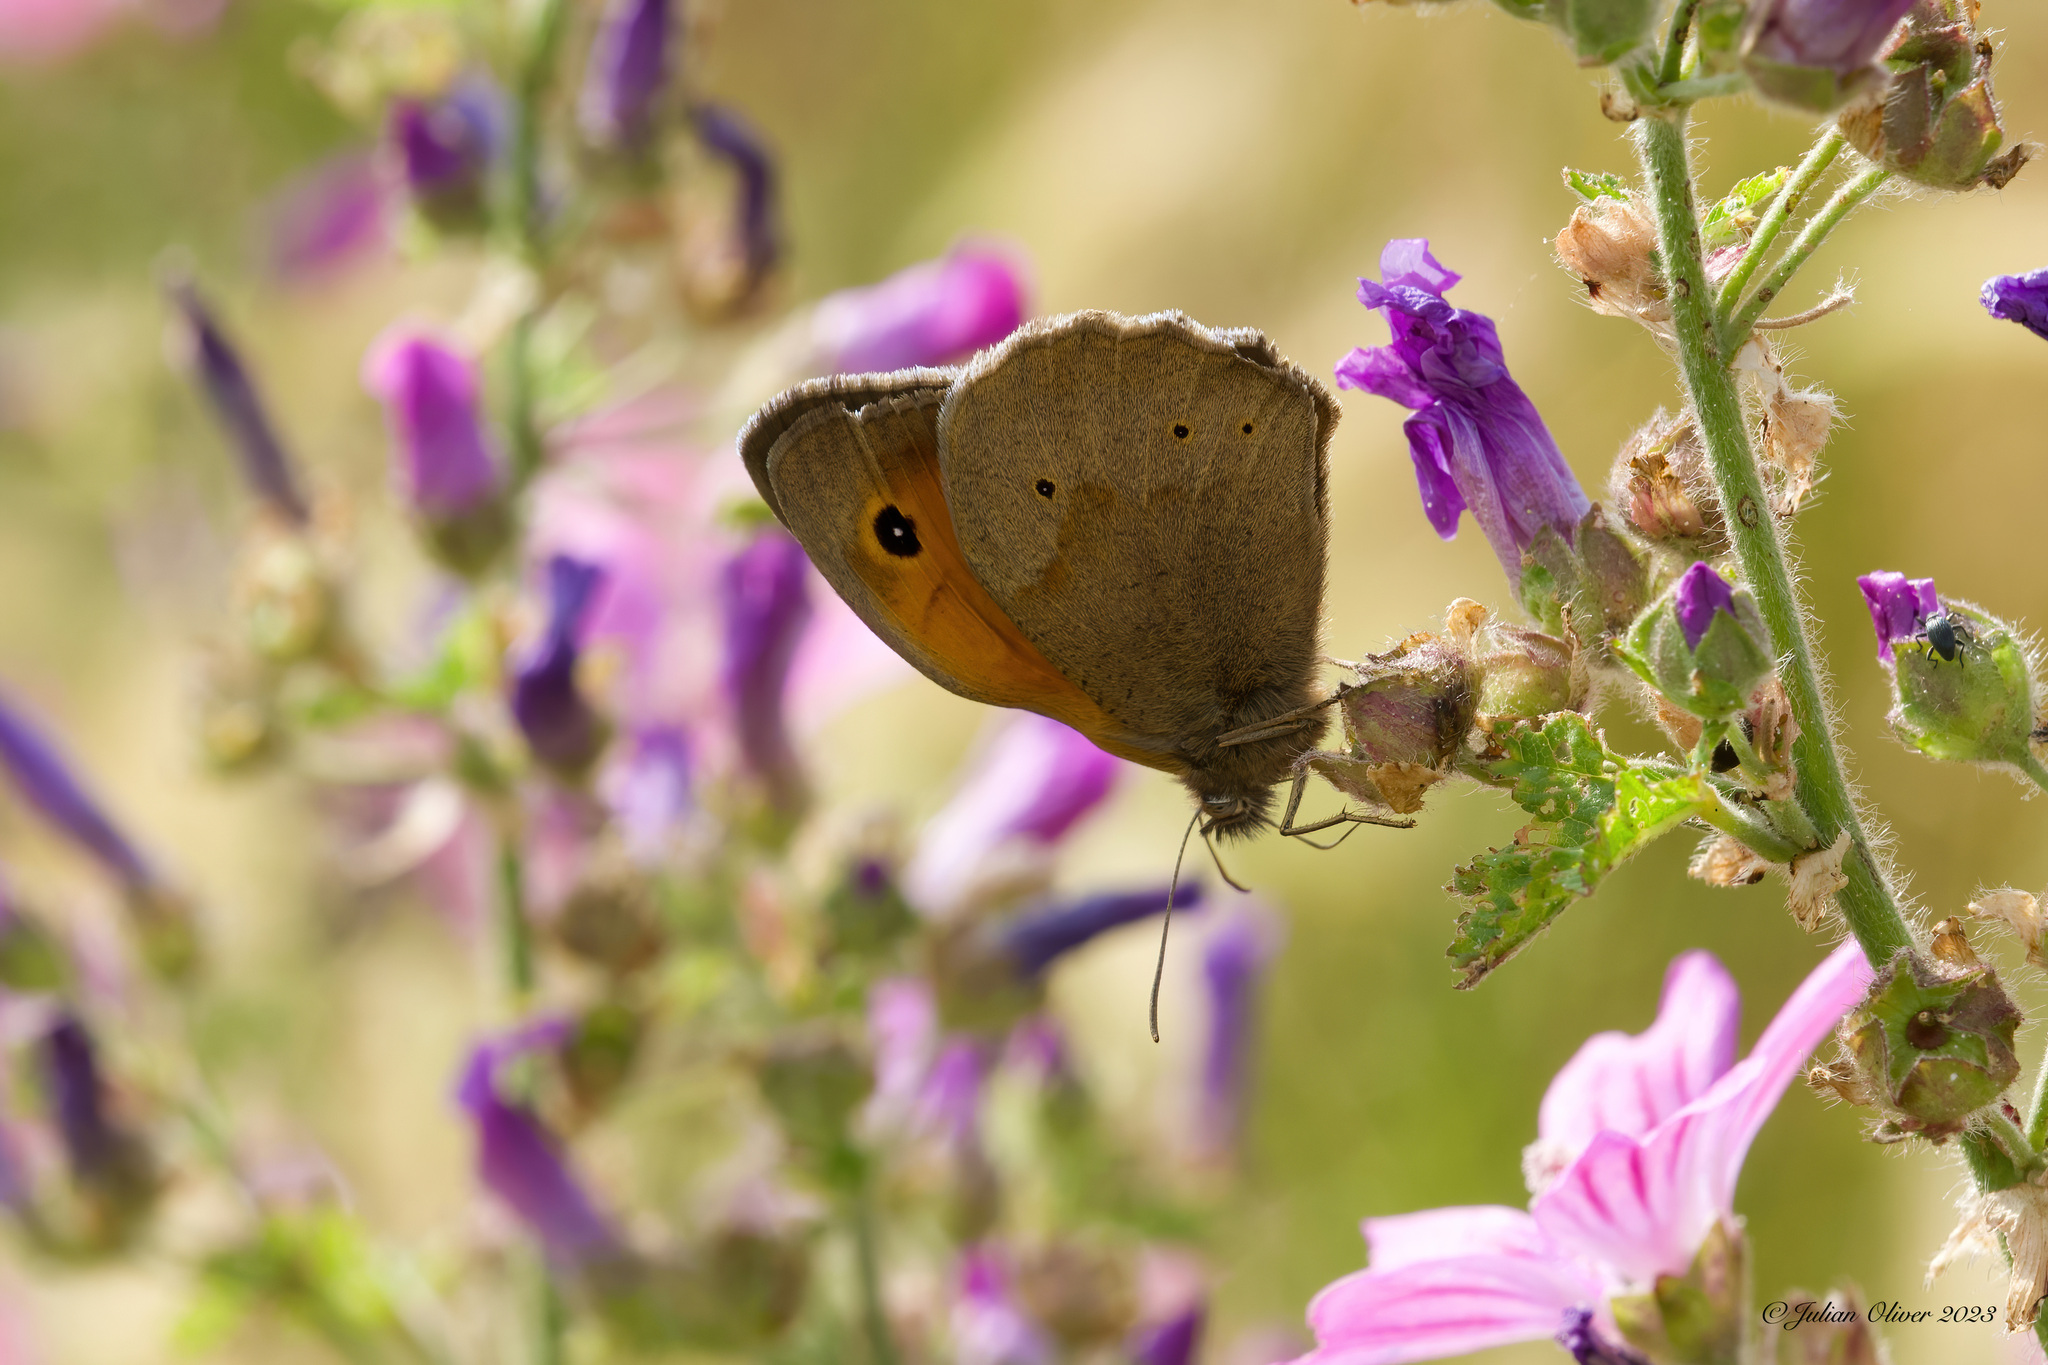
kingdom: Animalia
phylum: Arthropoda
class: Insecta
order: Lepidoptera
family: Nymphalidae
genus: Maniola
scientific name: Maniola jurtina
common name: Meadow brown
